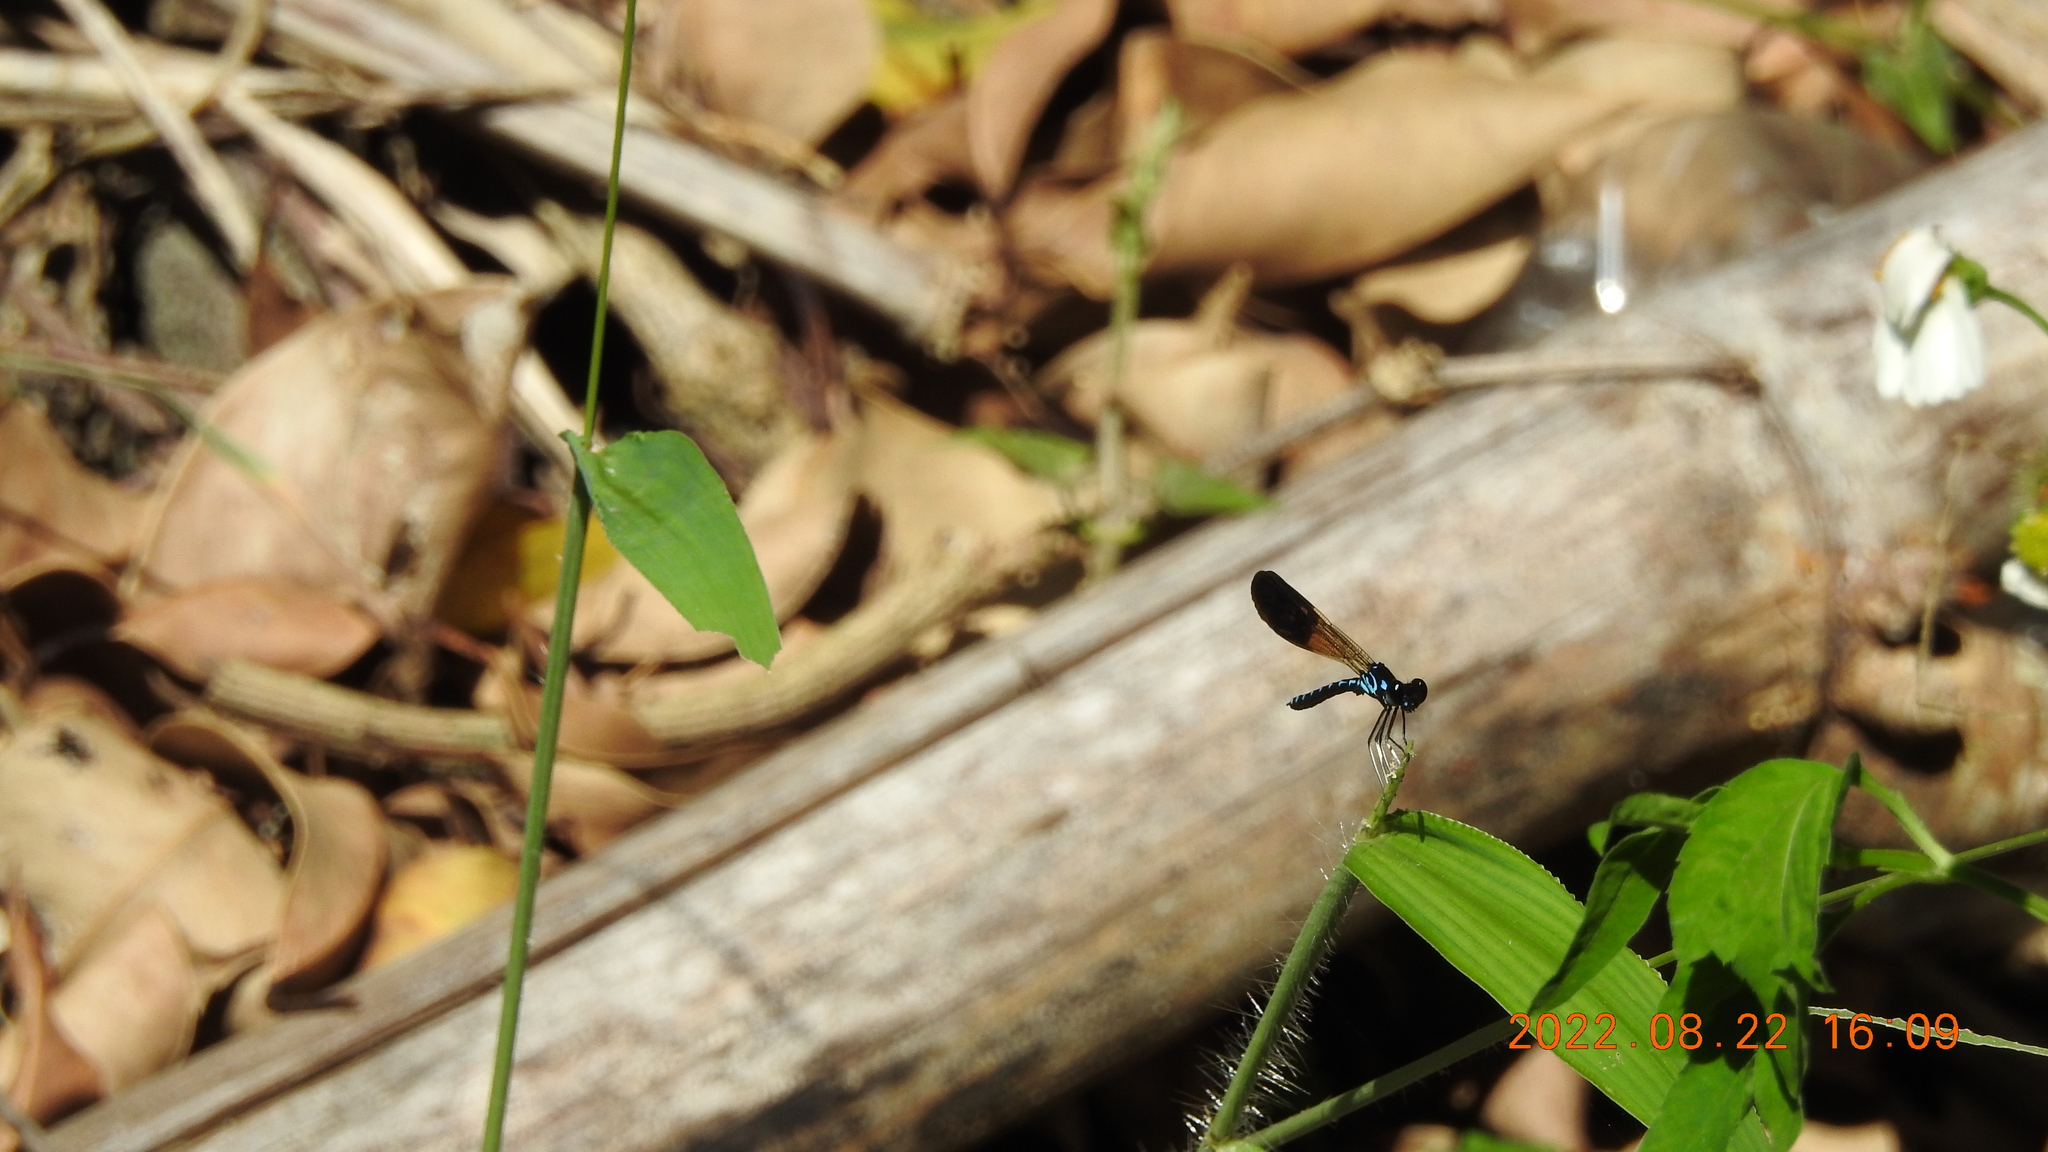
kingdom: Animalia
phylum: Arthropoda
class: Insecta
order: Odonata
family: Chlorocyphidae
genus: Heliocypha
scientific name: Heliocypha perforata
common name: Common blue jewel
